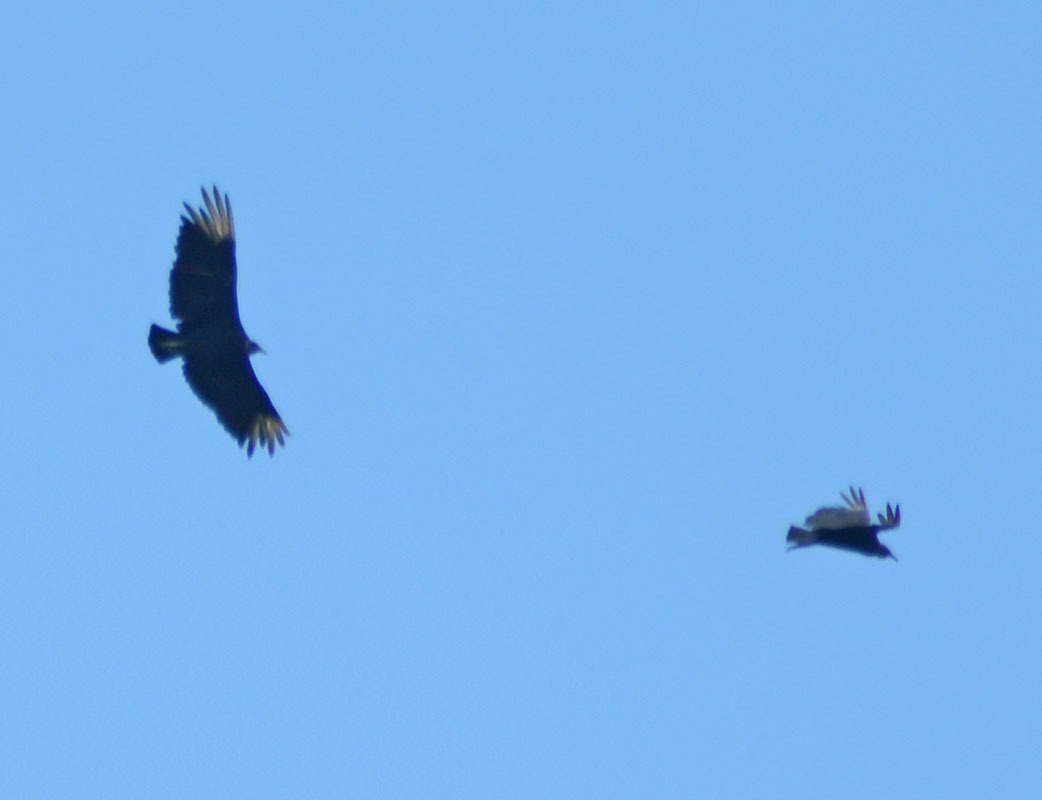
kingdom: Animalia
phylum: Chordata
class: Aves
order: Accipitriformes
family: Cathartidae
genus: Coragyps
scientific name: Coragyps atratus
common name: Black vulture
